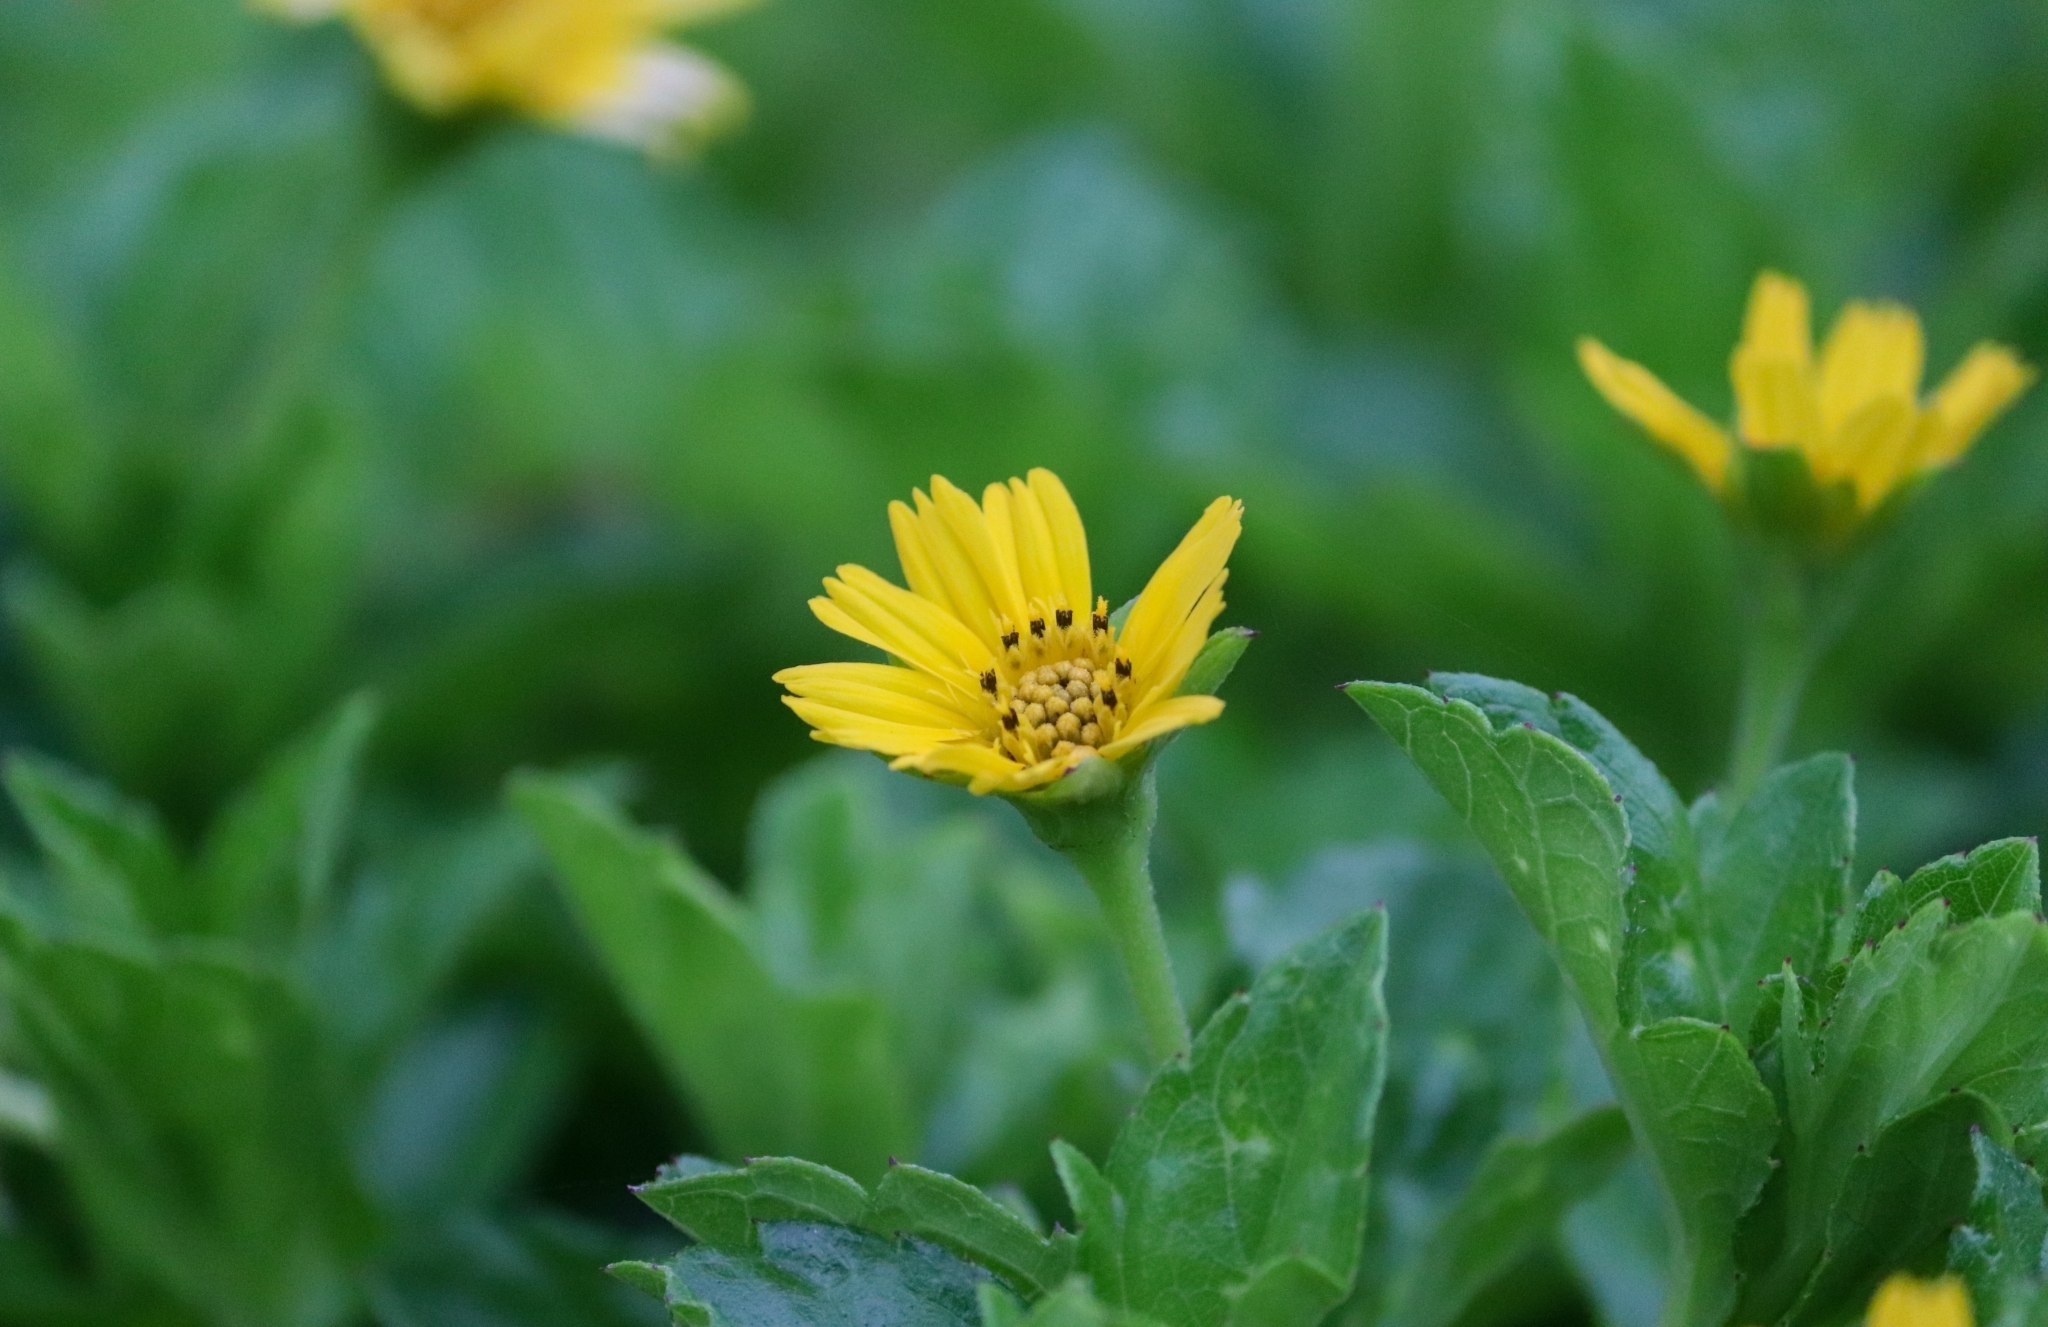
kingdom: Plantae
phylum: Tracheophyta
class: Magnoliopsida
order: Asterales
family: Asteraceae
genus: Sphagneticola
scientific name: Sphagneticola trilobata
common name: Bay biscayne creeping-oxeye
